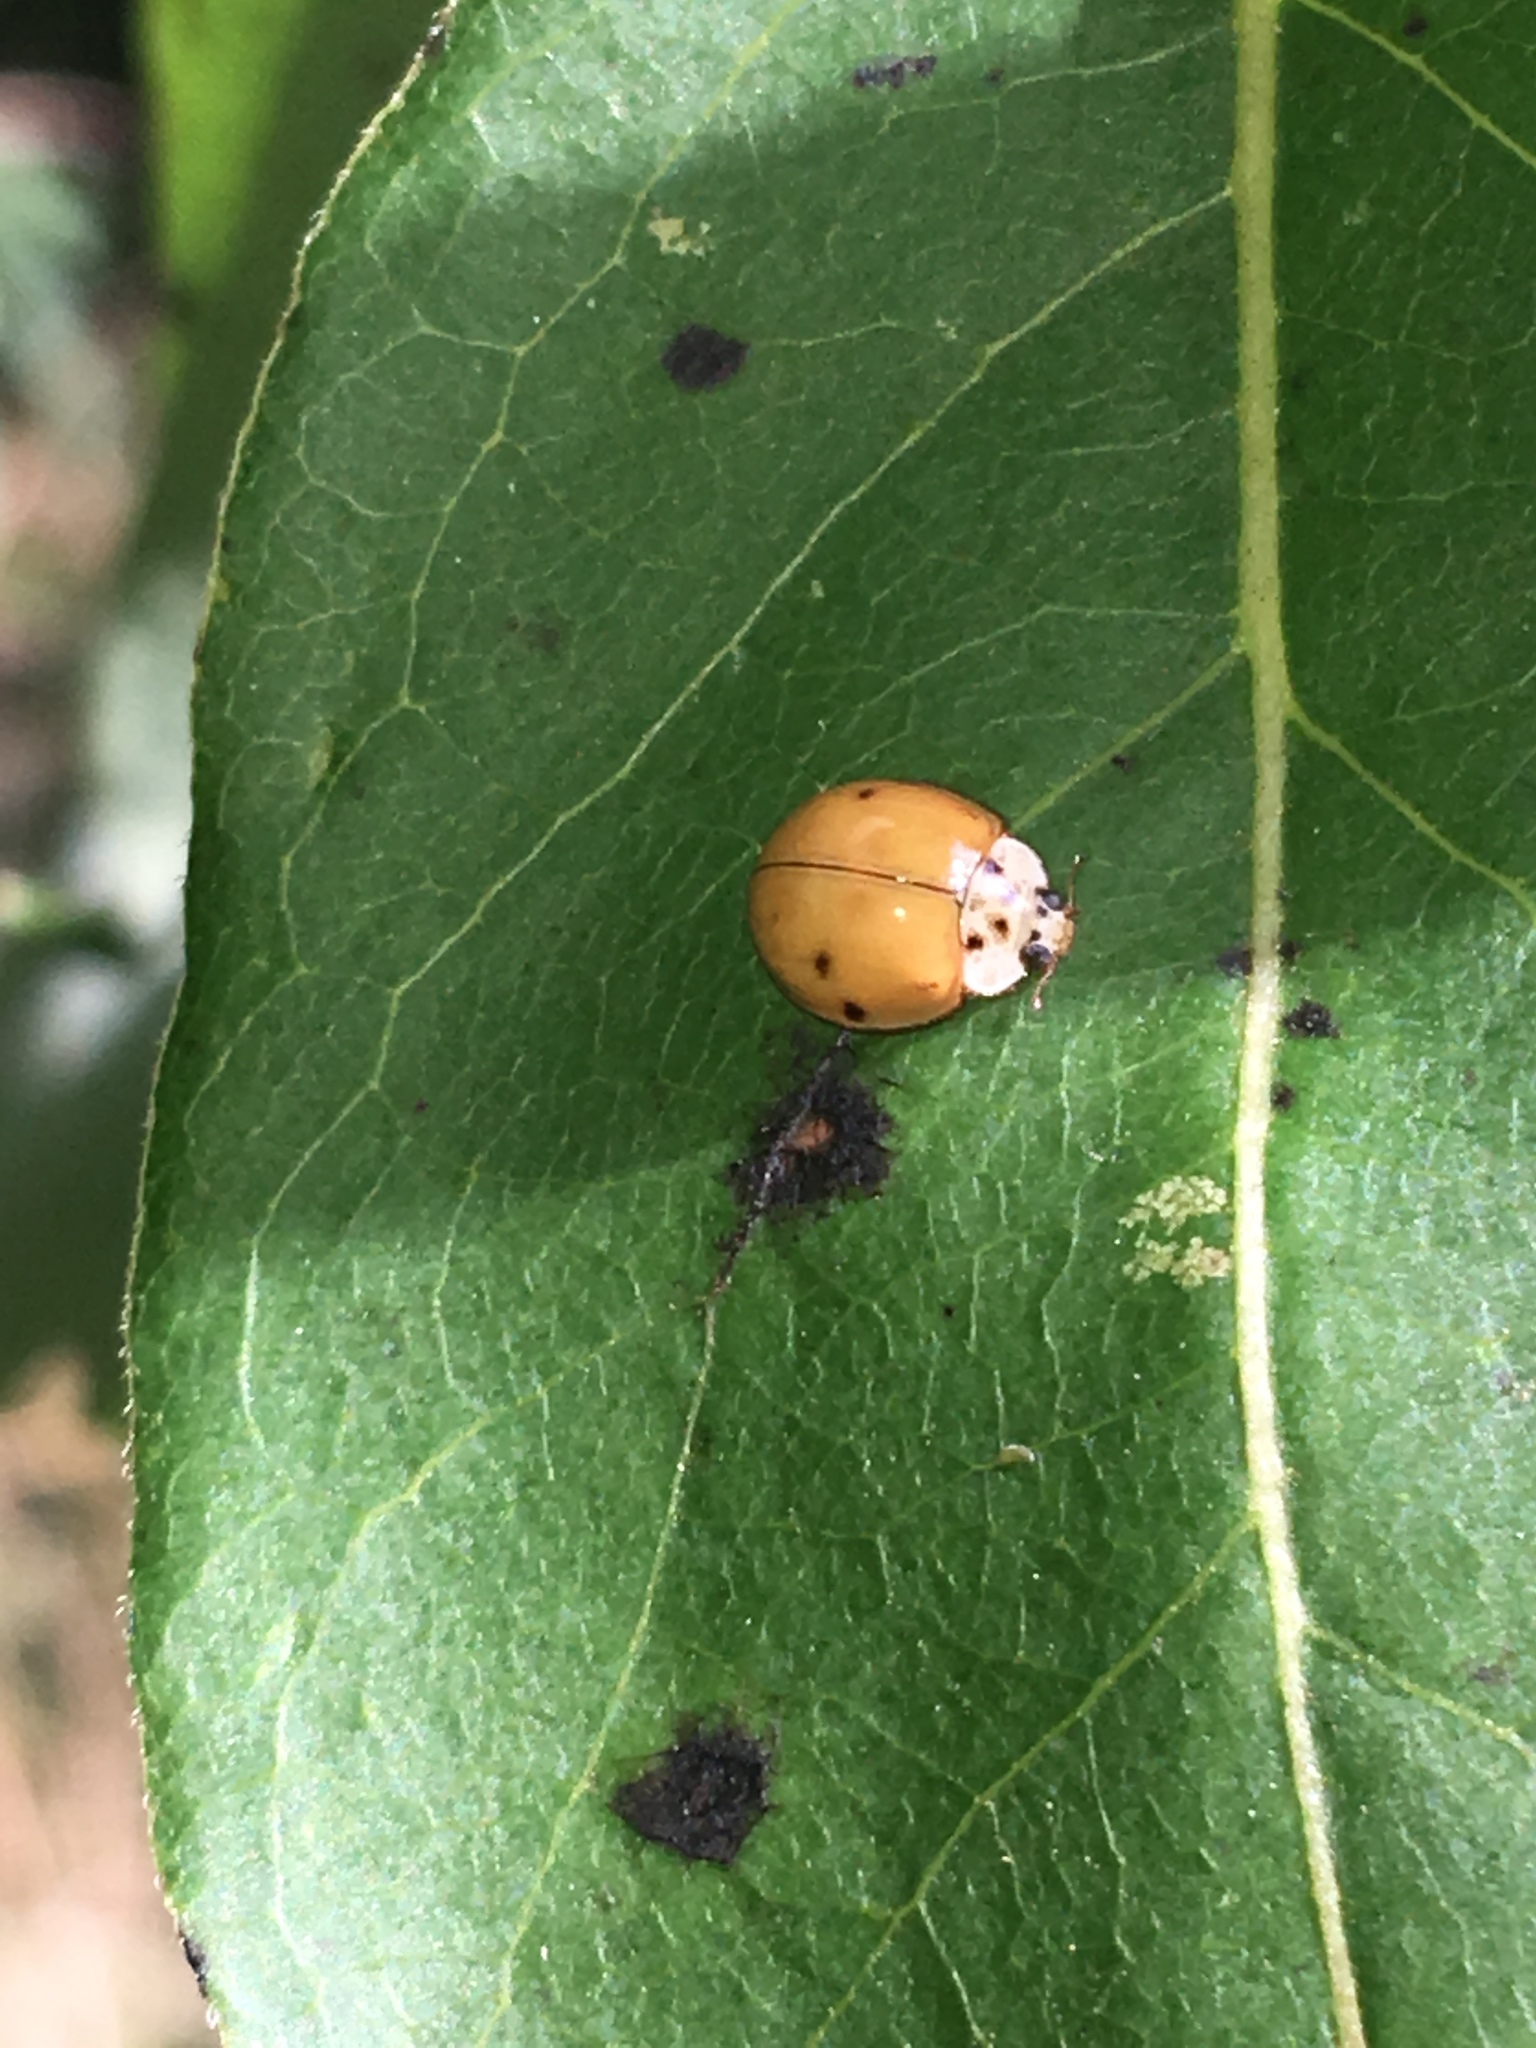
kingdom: Animalia
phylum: Arthropoda
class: Insecta
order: Coleoptera
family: Coccinellidae
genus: Harmonia
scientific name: Harmonia axyridis
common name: Harlequin ladybird
